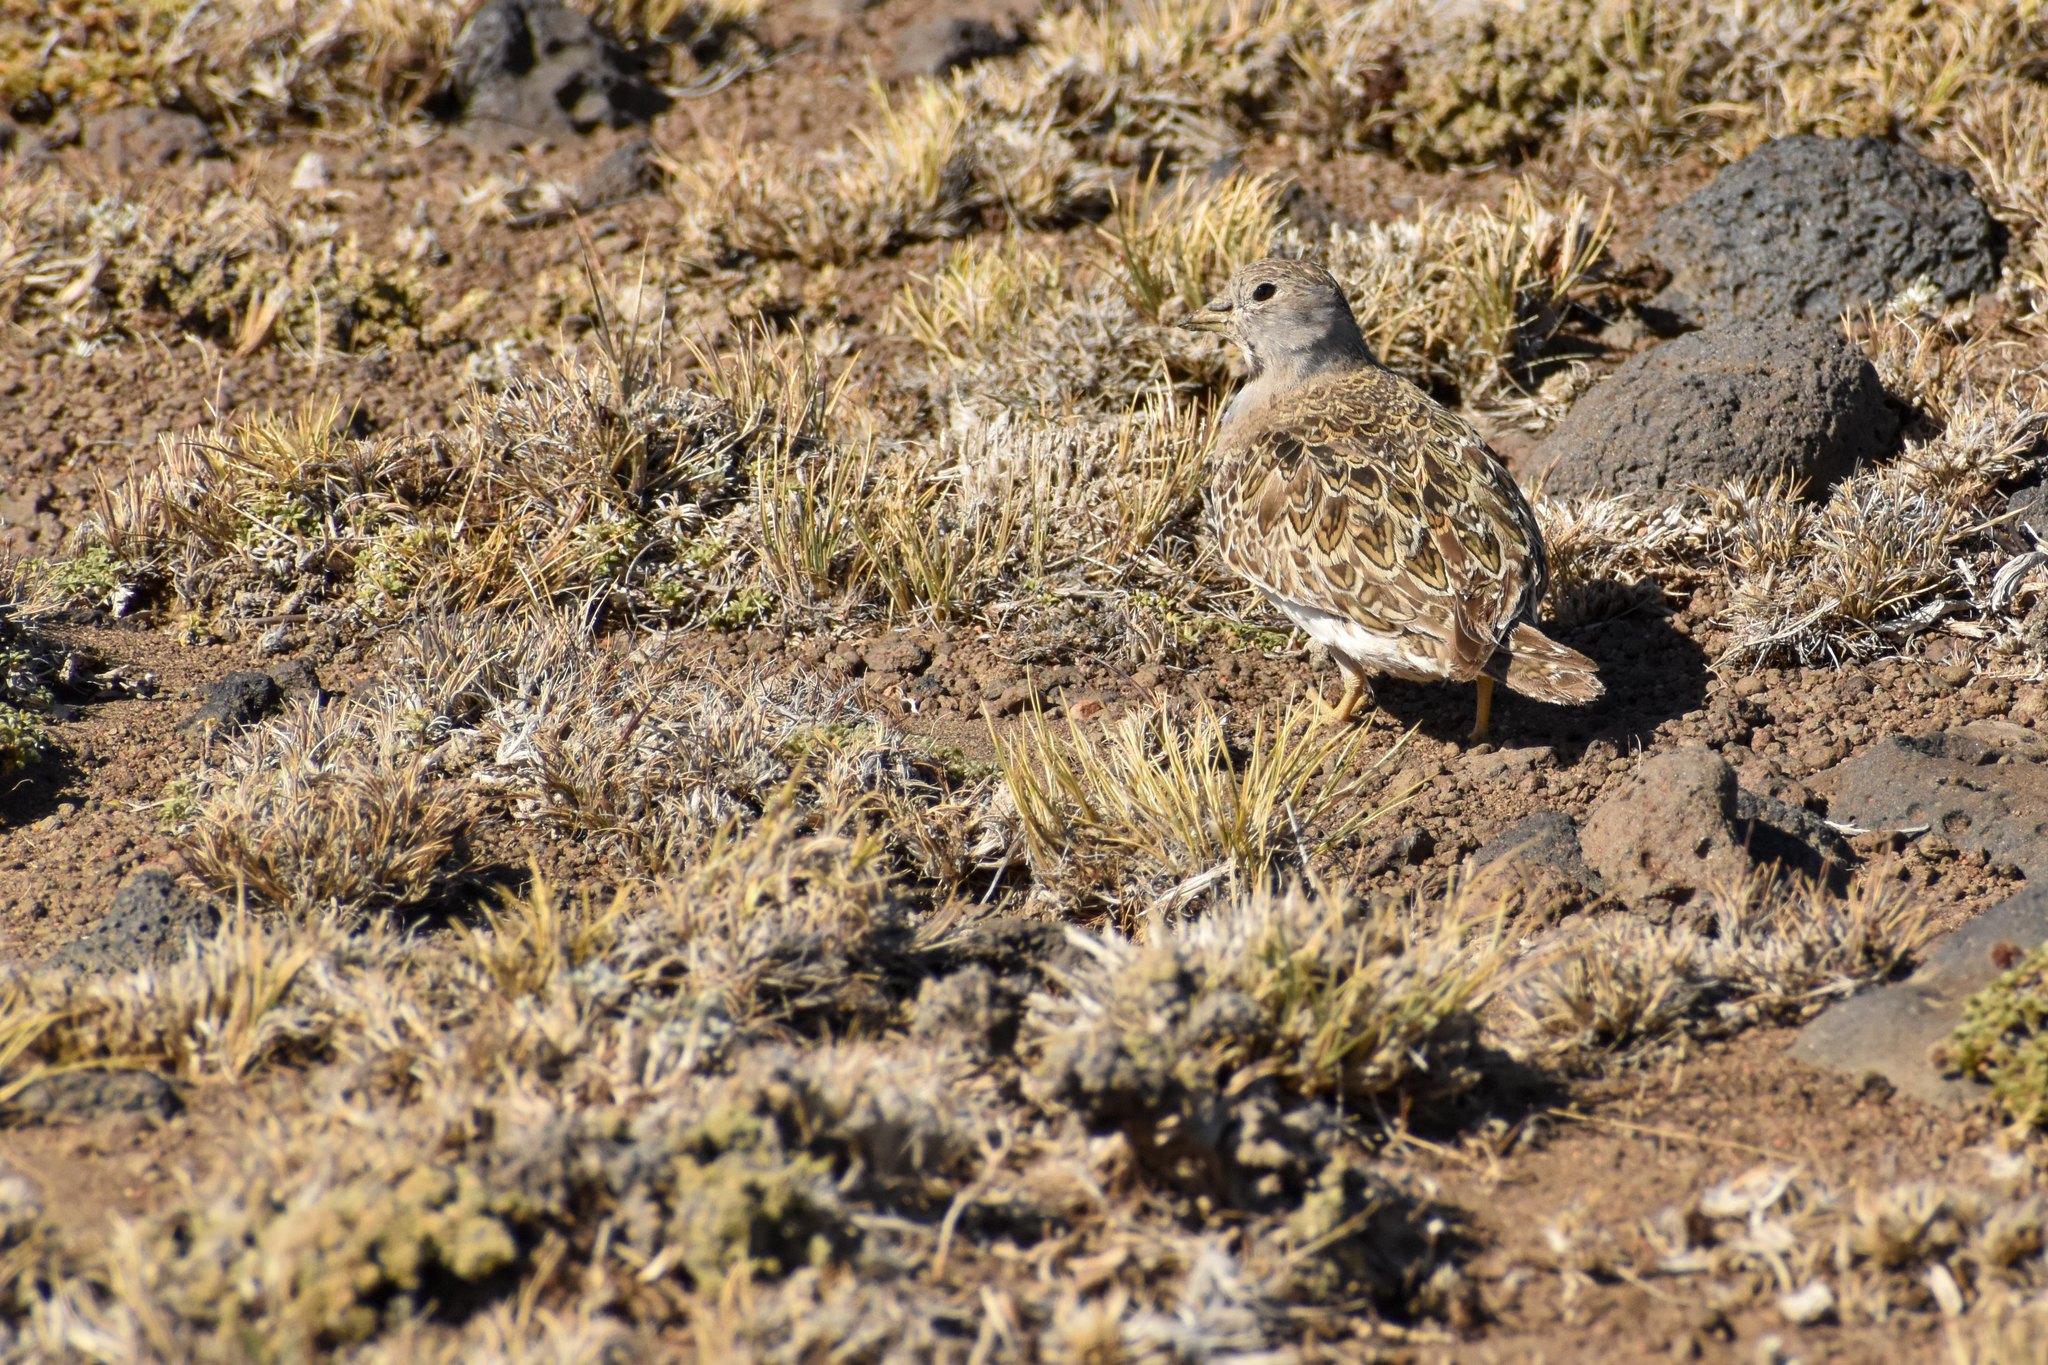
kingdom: Animalia
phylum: Chordata
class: Aves
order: Charadriiformes
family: Thinocoridae
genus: Thinocorus
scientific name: Thinocorus orbignyianus
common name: Grey-breasted seedsnipe
